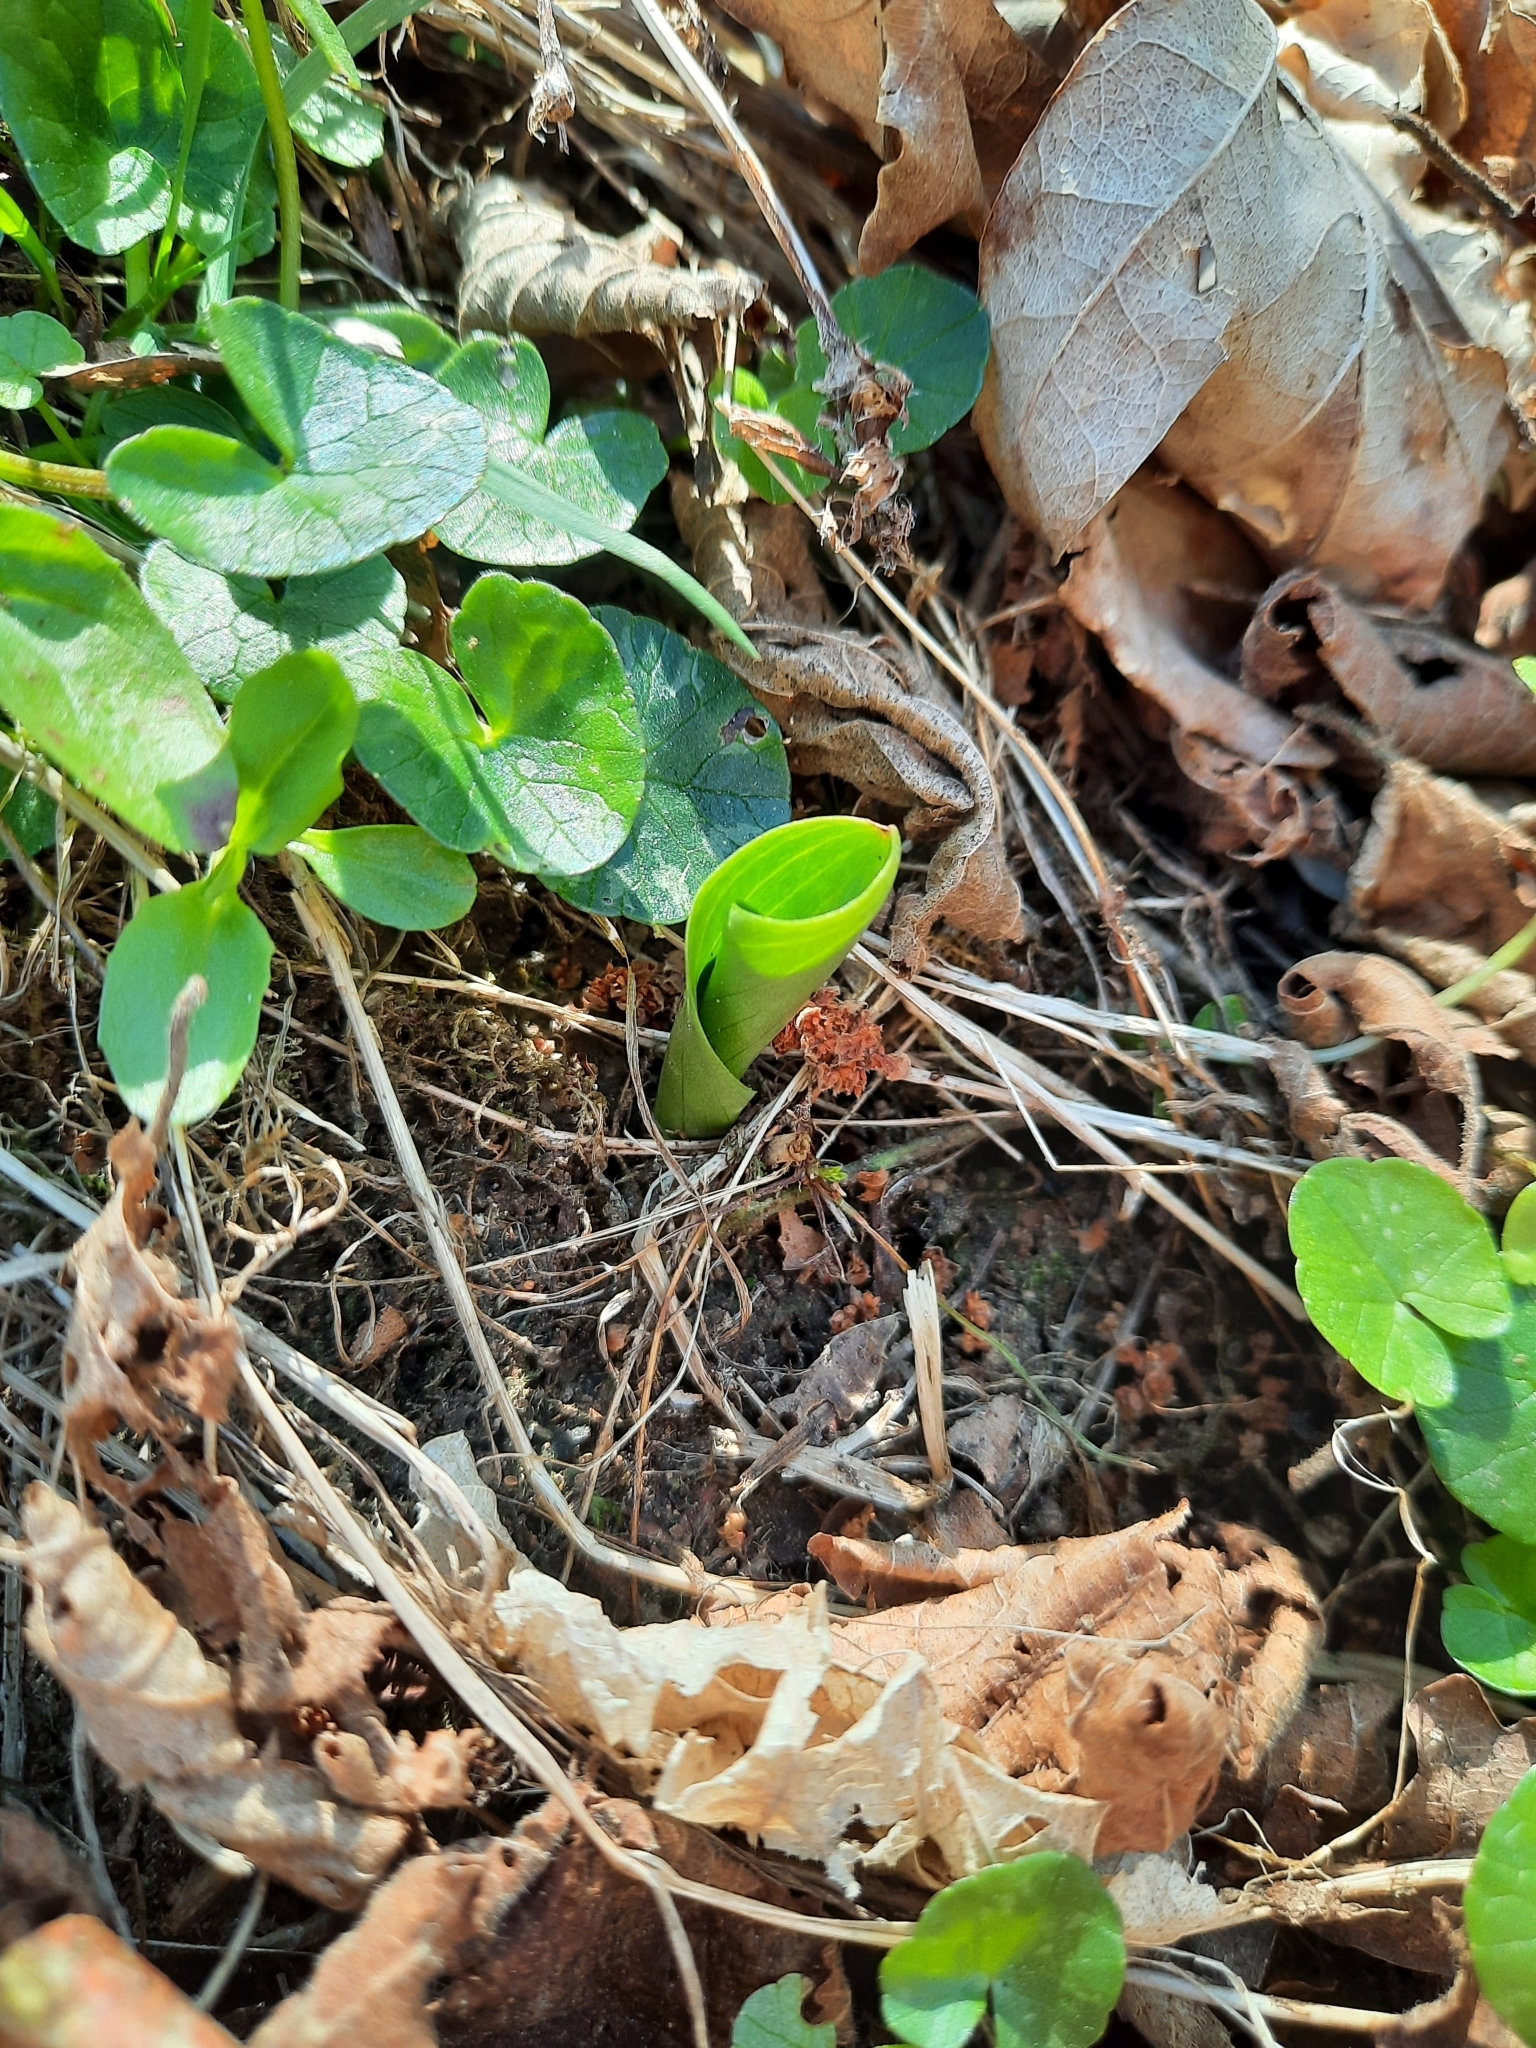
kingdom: Plantae
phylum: Tracheophyta
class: Liliopsida
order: Asparagales
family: Orchidaceae
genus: Platanthera
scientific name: Platanthera chlorantha
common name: Greater butterfly-orchid
